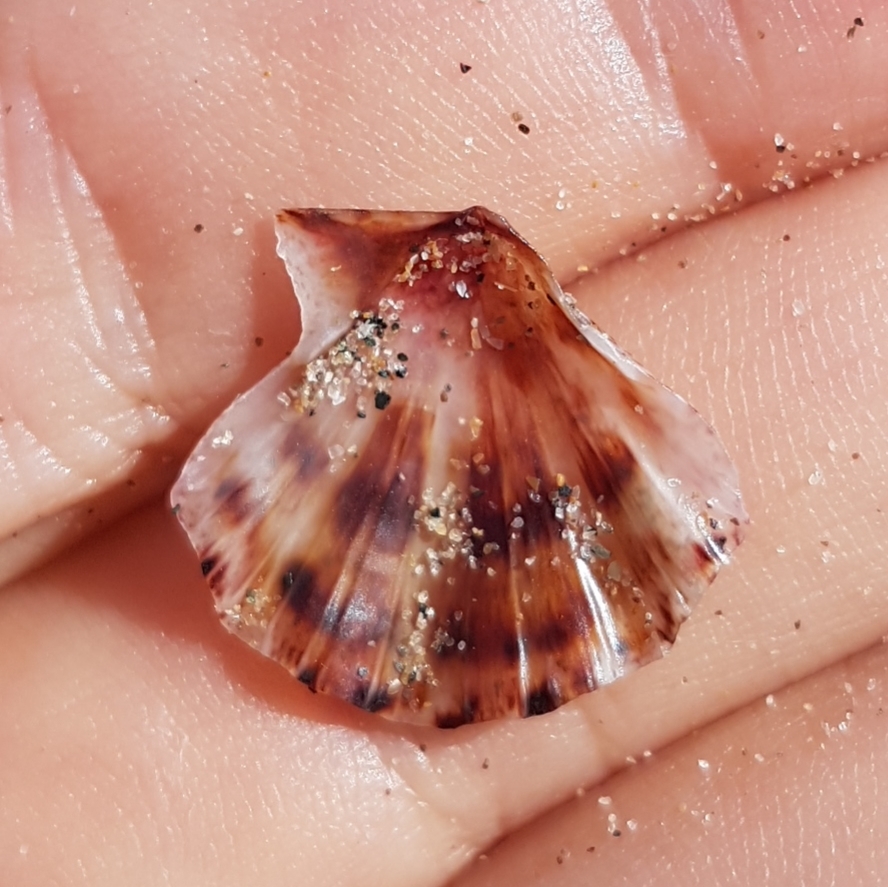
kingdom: Animalia
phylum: Mollusca
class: Bivalvia
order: Pectinida
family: Pectinidae
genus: Flexopecten
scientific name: Flexopecten flexuosus
